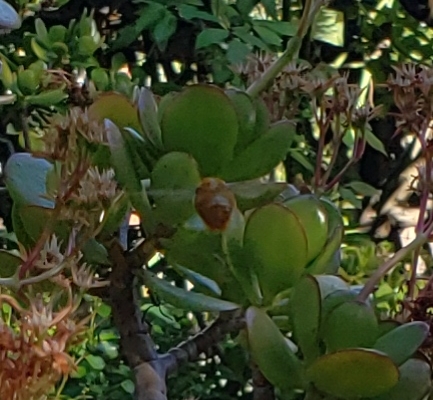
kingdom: Animalia
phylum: Arthropoda
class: Insecta
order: Hymenoptera
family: Apidae
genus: Xylocopa
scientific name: Xylocopa sonorina
